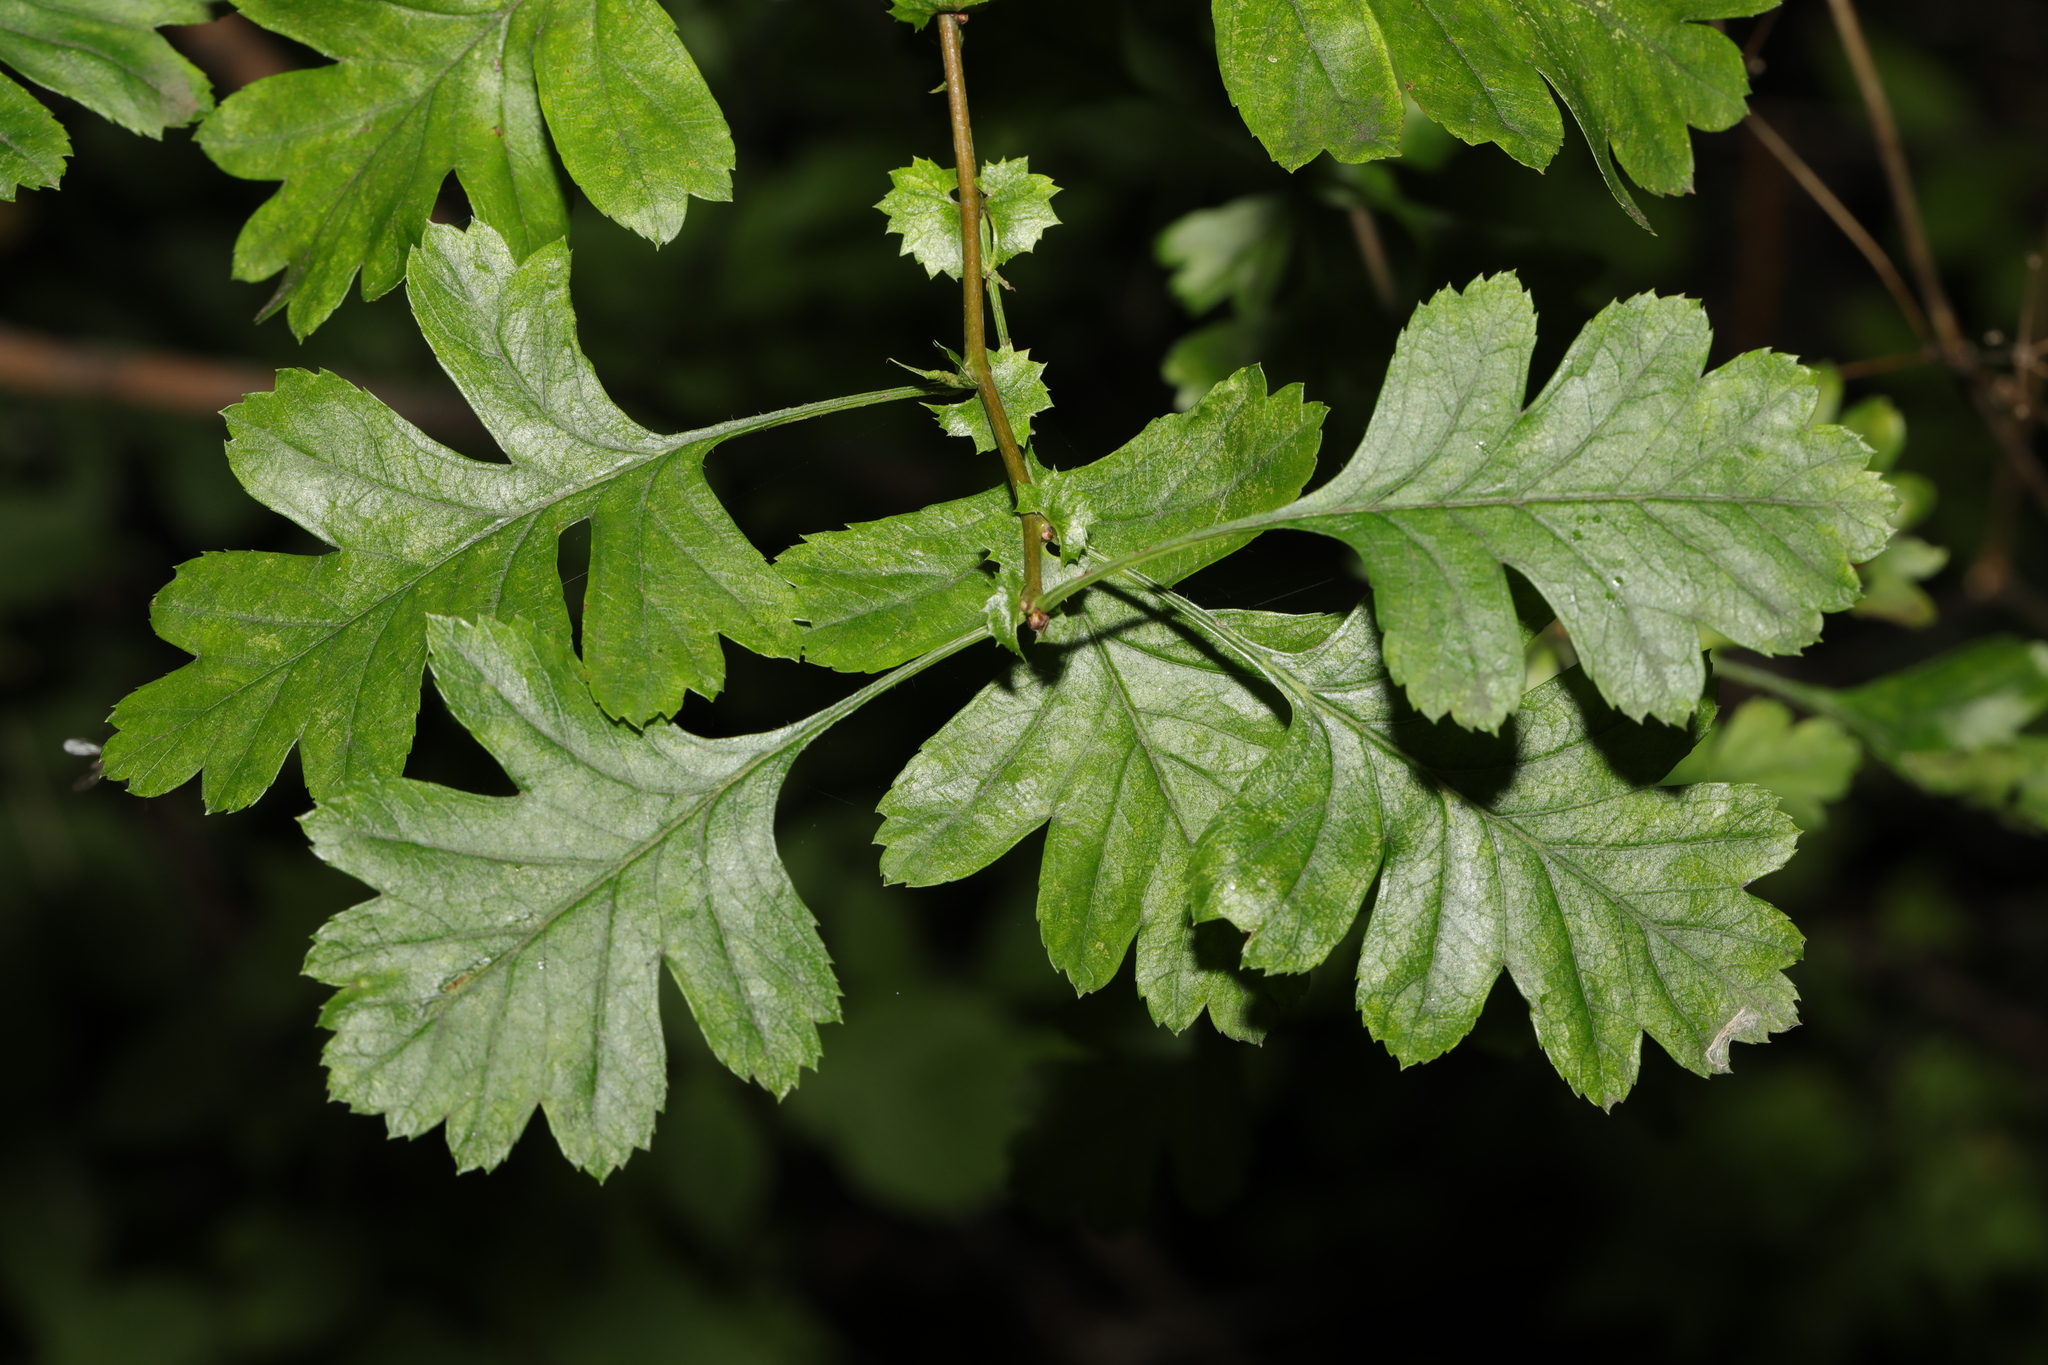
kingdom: Plantae
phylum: Tracheophyta
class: Magnoliopsida
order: Rosales
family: Rosaceae
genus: Crataegus
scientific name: Crataegus monogyna
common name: Hawthorn
